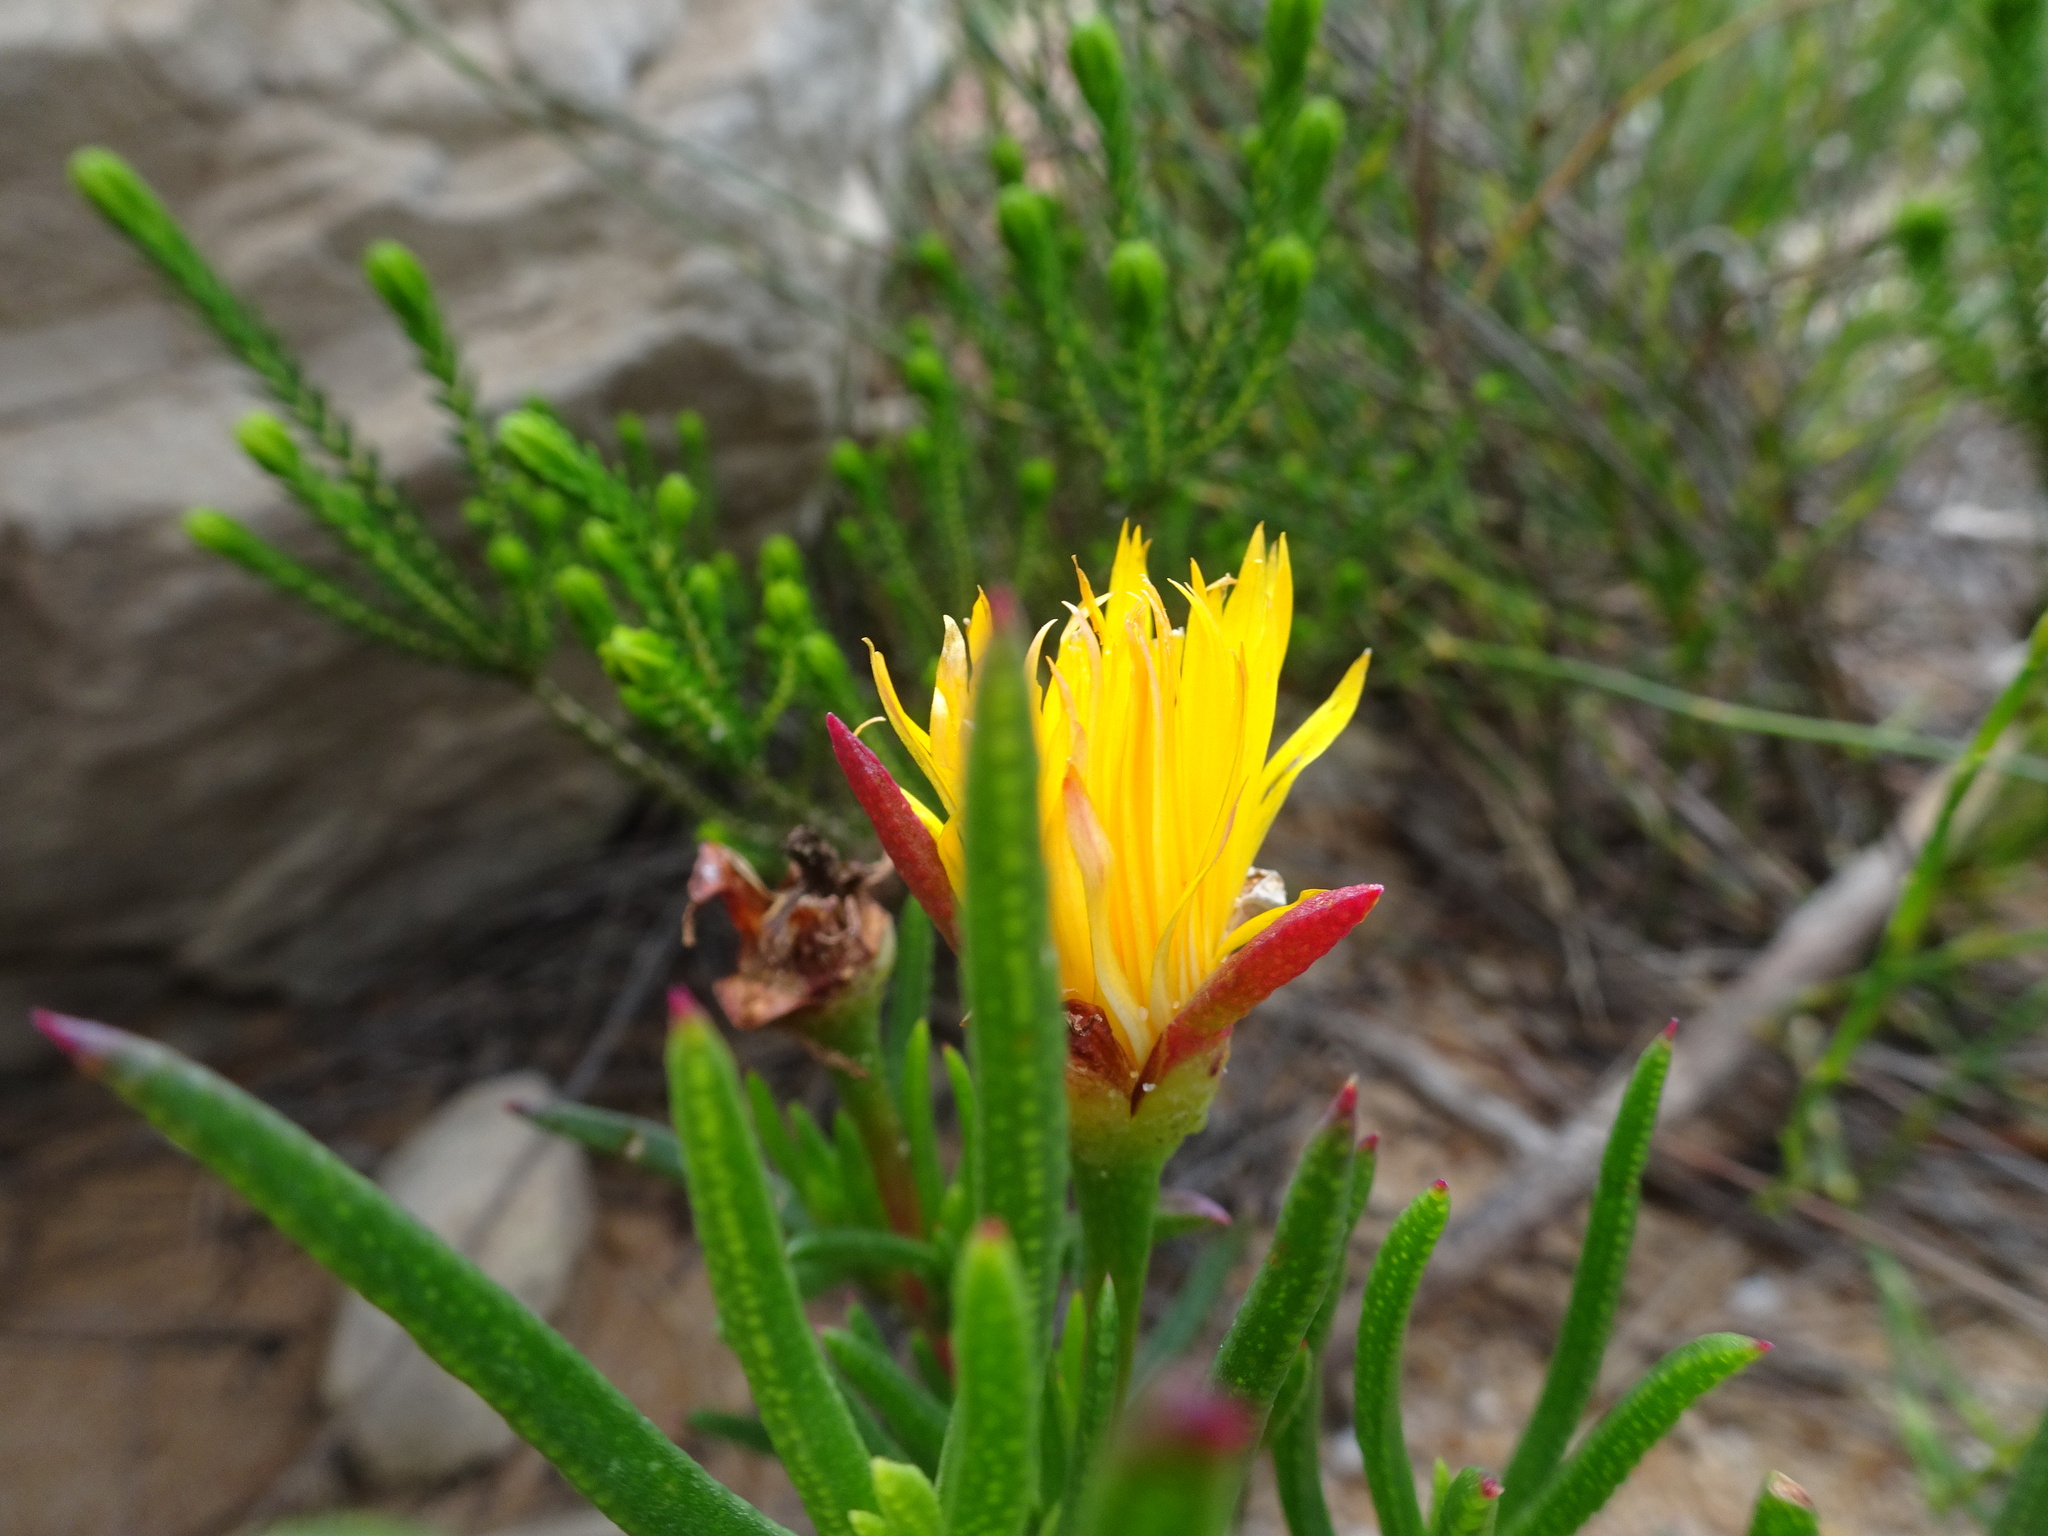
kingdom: Plantae
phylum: Tracheophyta
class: Magnoliopsida
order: Caryophyllales
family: Aizoaceae
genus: Lampranthus
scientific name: Lampranthus bicolor
